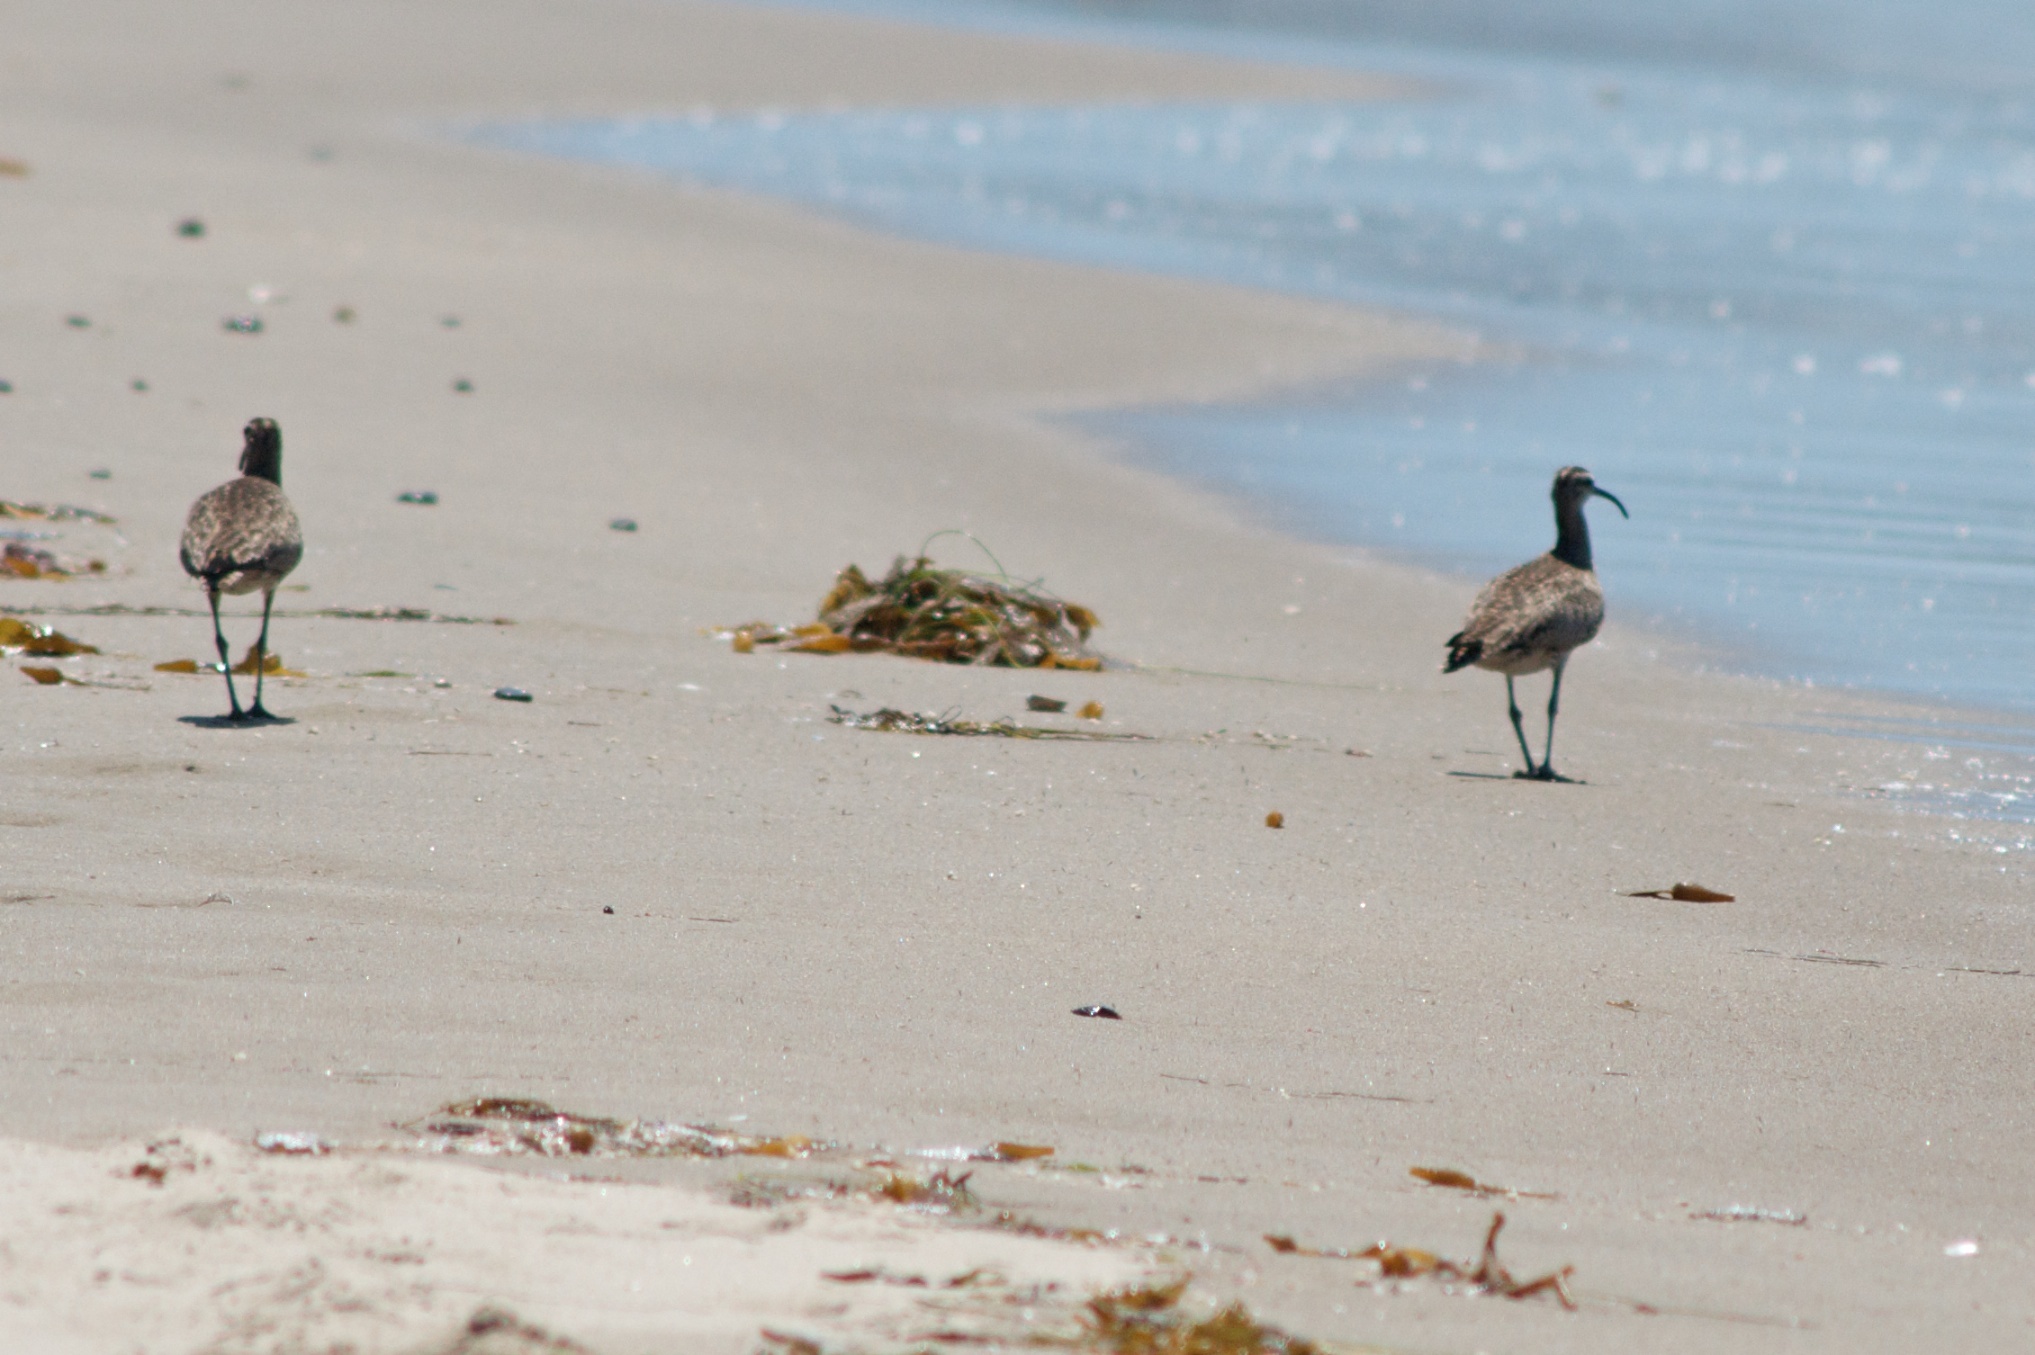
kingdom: Animalia
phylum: Chordata
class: Aves
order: Charadriiformes
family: Scolopacidae
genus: Numenius
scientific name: Numenius phaeopus
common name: Whimbrel
